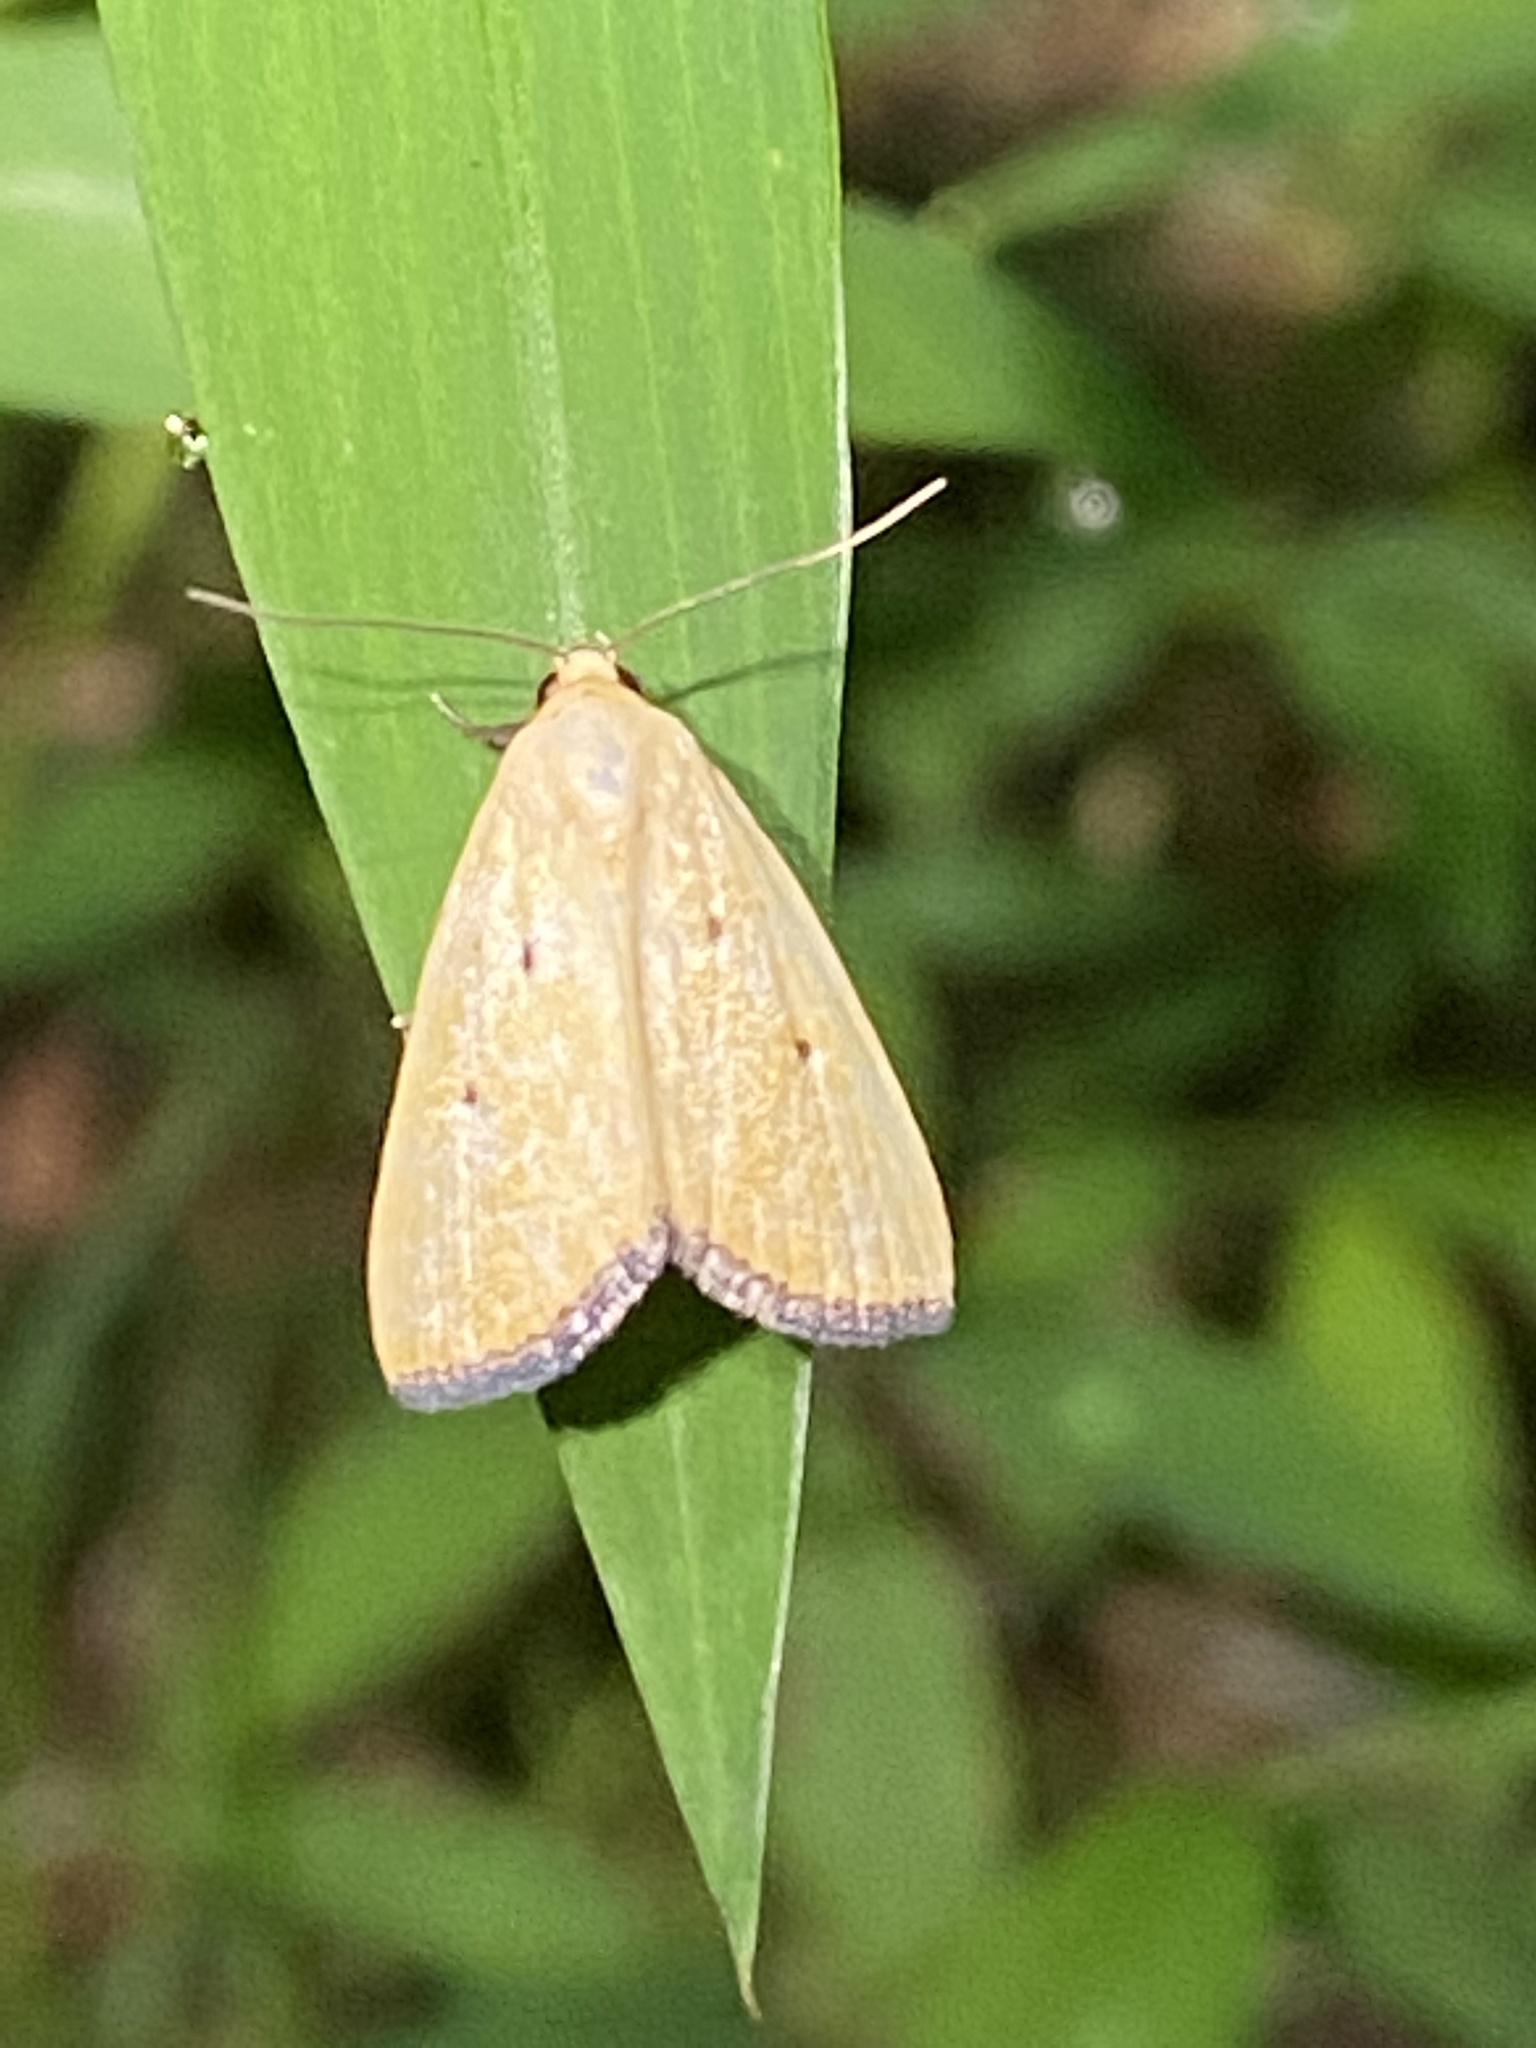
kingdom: Animalia
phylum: Arthropoda
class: Insecta
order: Lepidoptera
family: Noctuidae
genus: Marimatha
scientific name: Marimatha nigrofimbria
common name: Black-bordered lemon moth
